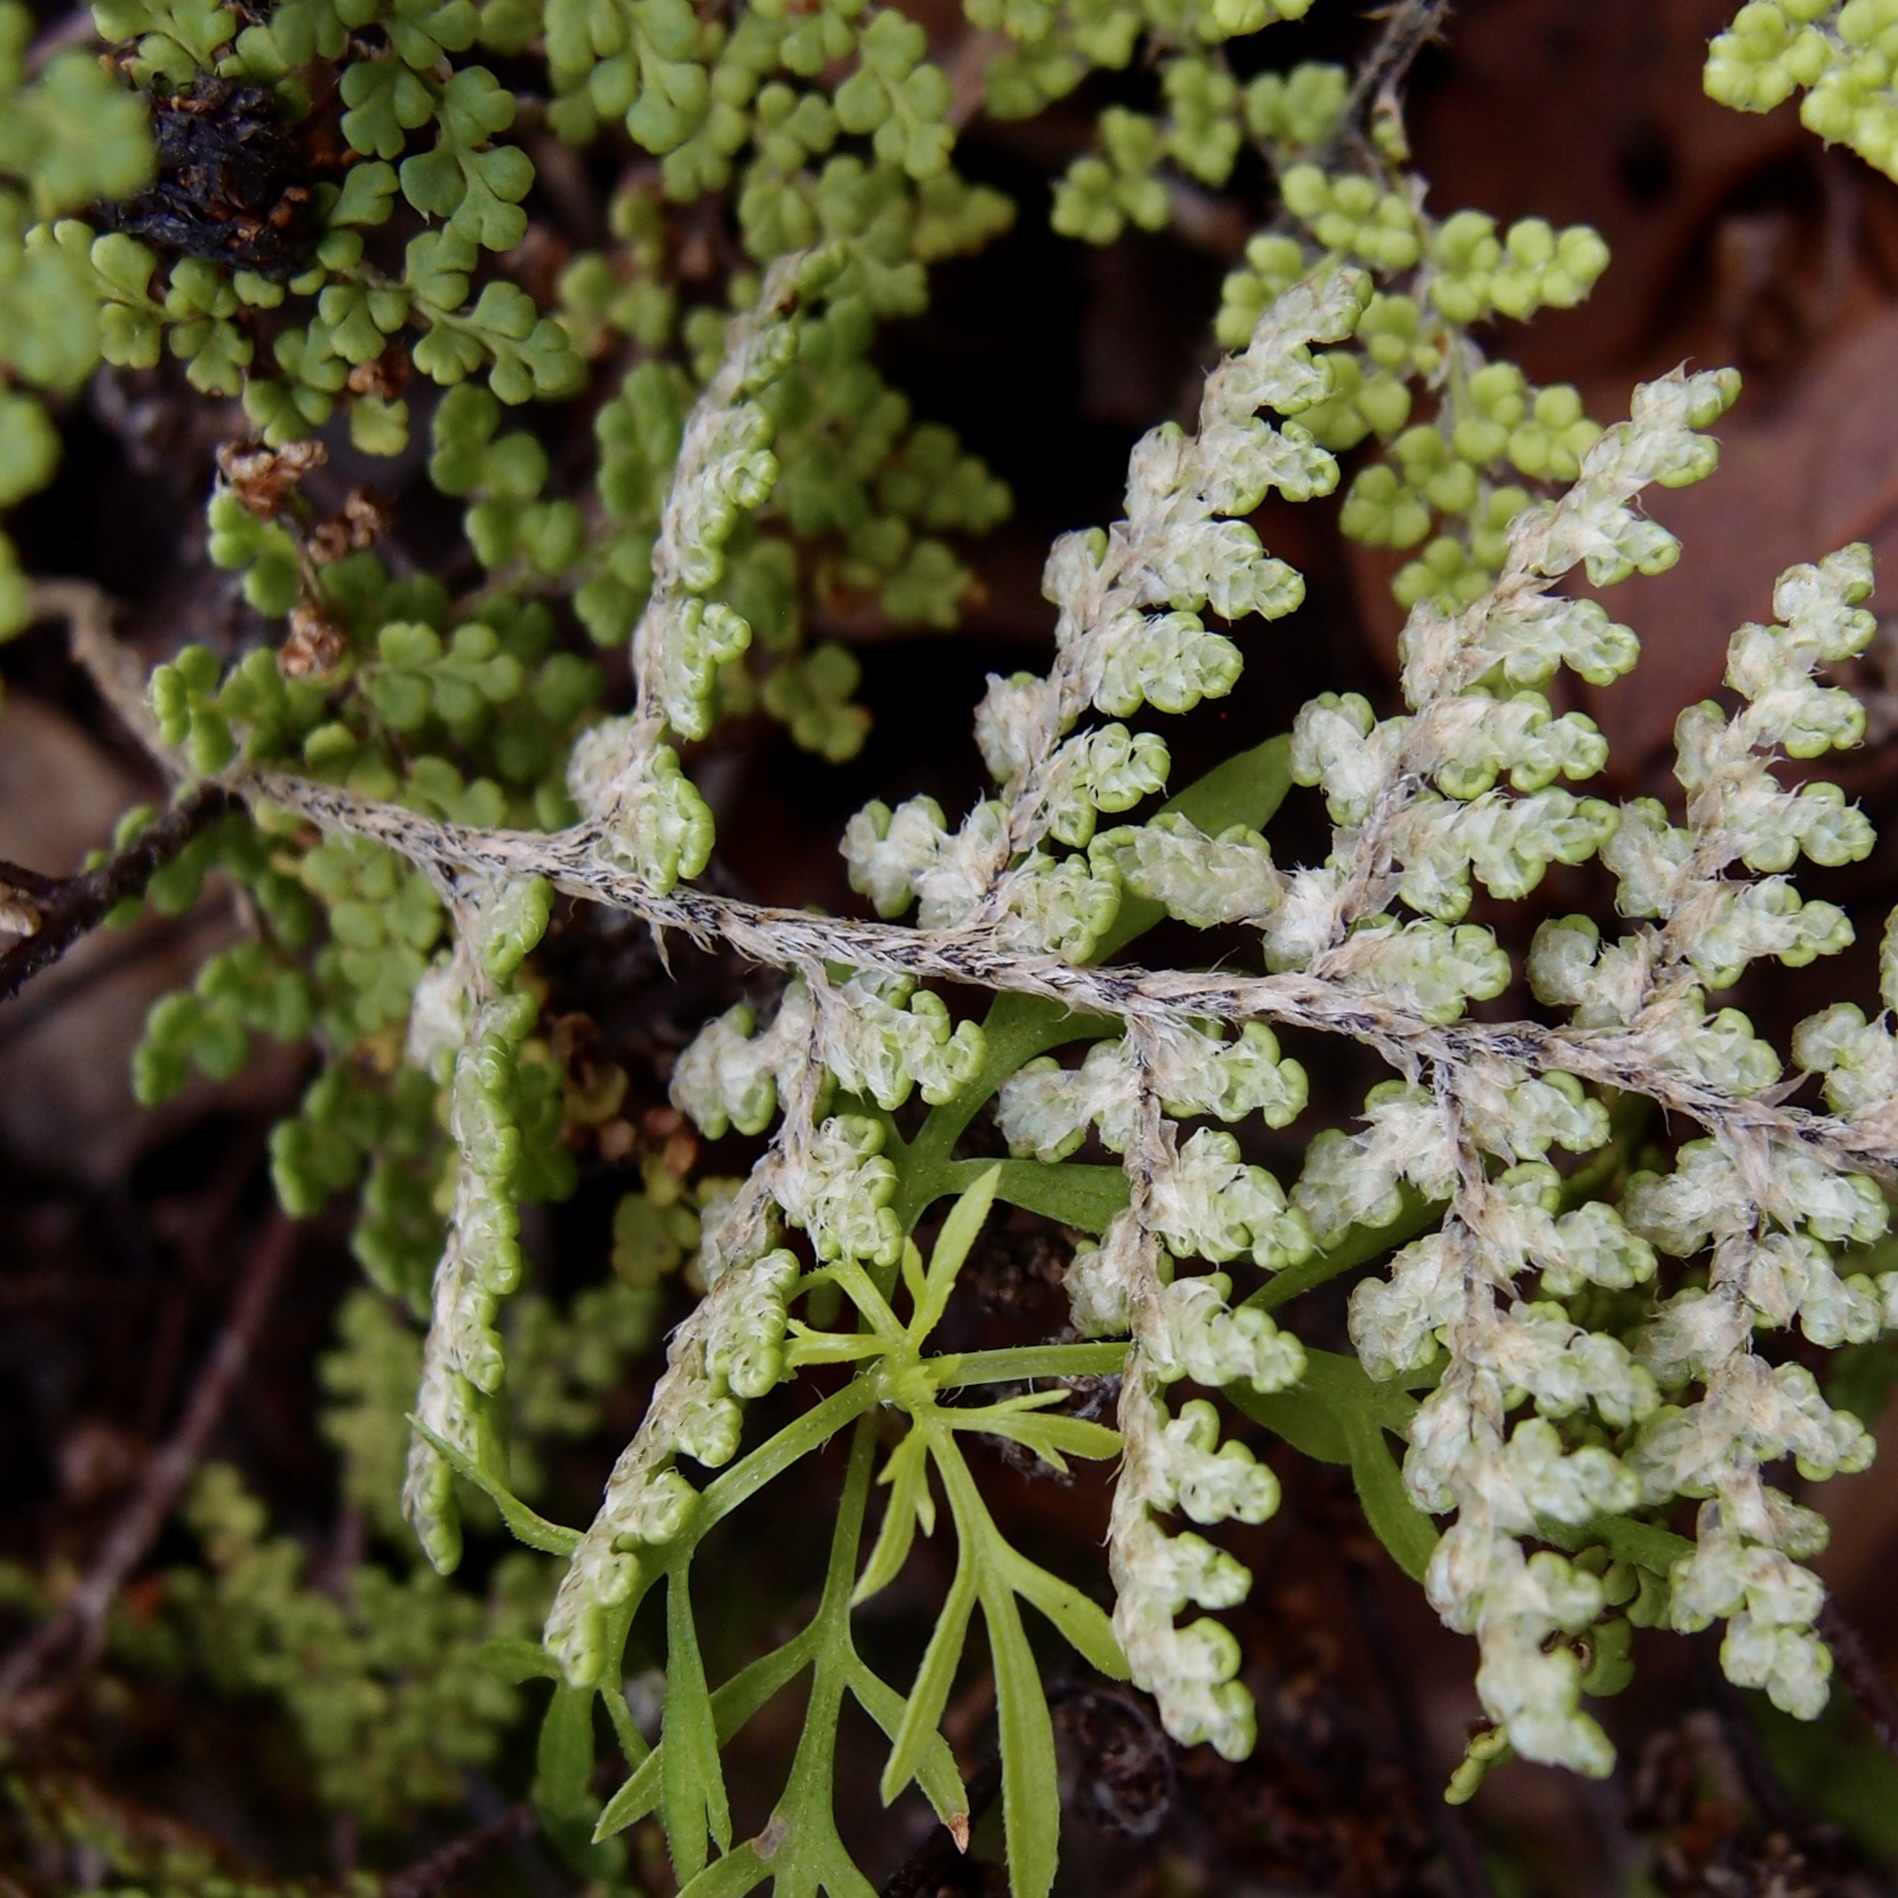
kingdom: Plantae
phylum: Tracheophyta
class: Polypodiopsida
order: Polypodiales
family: Pteridaceae
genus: Myriopteris
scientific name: Myriopteris fendleri
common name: Fendler's lip fern
